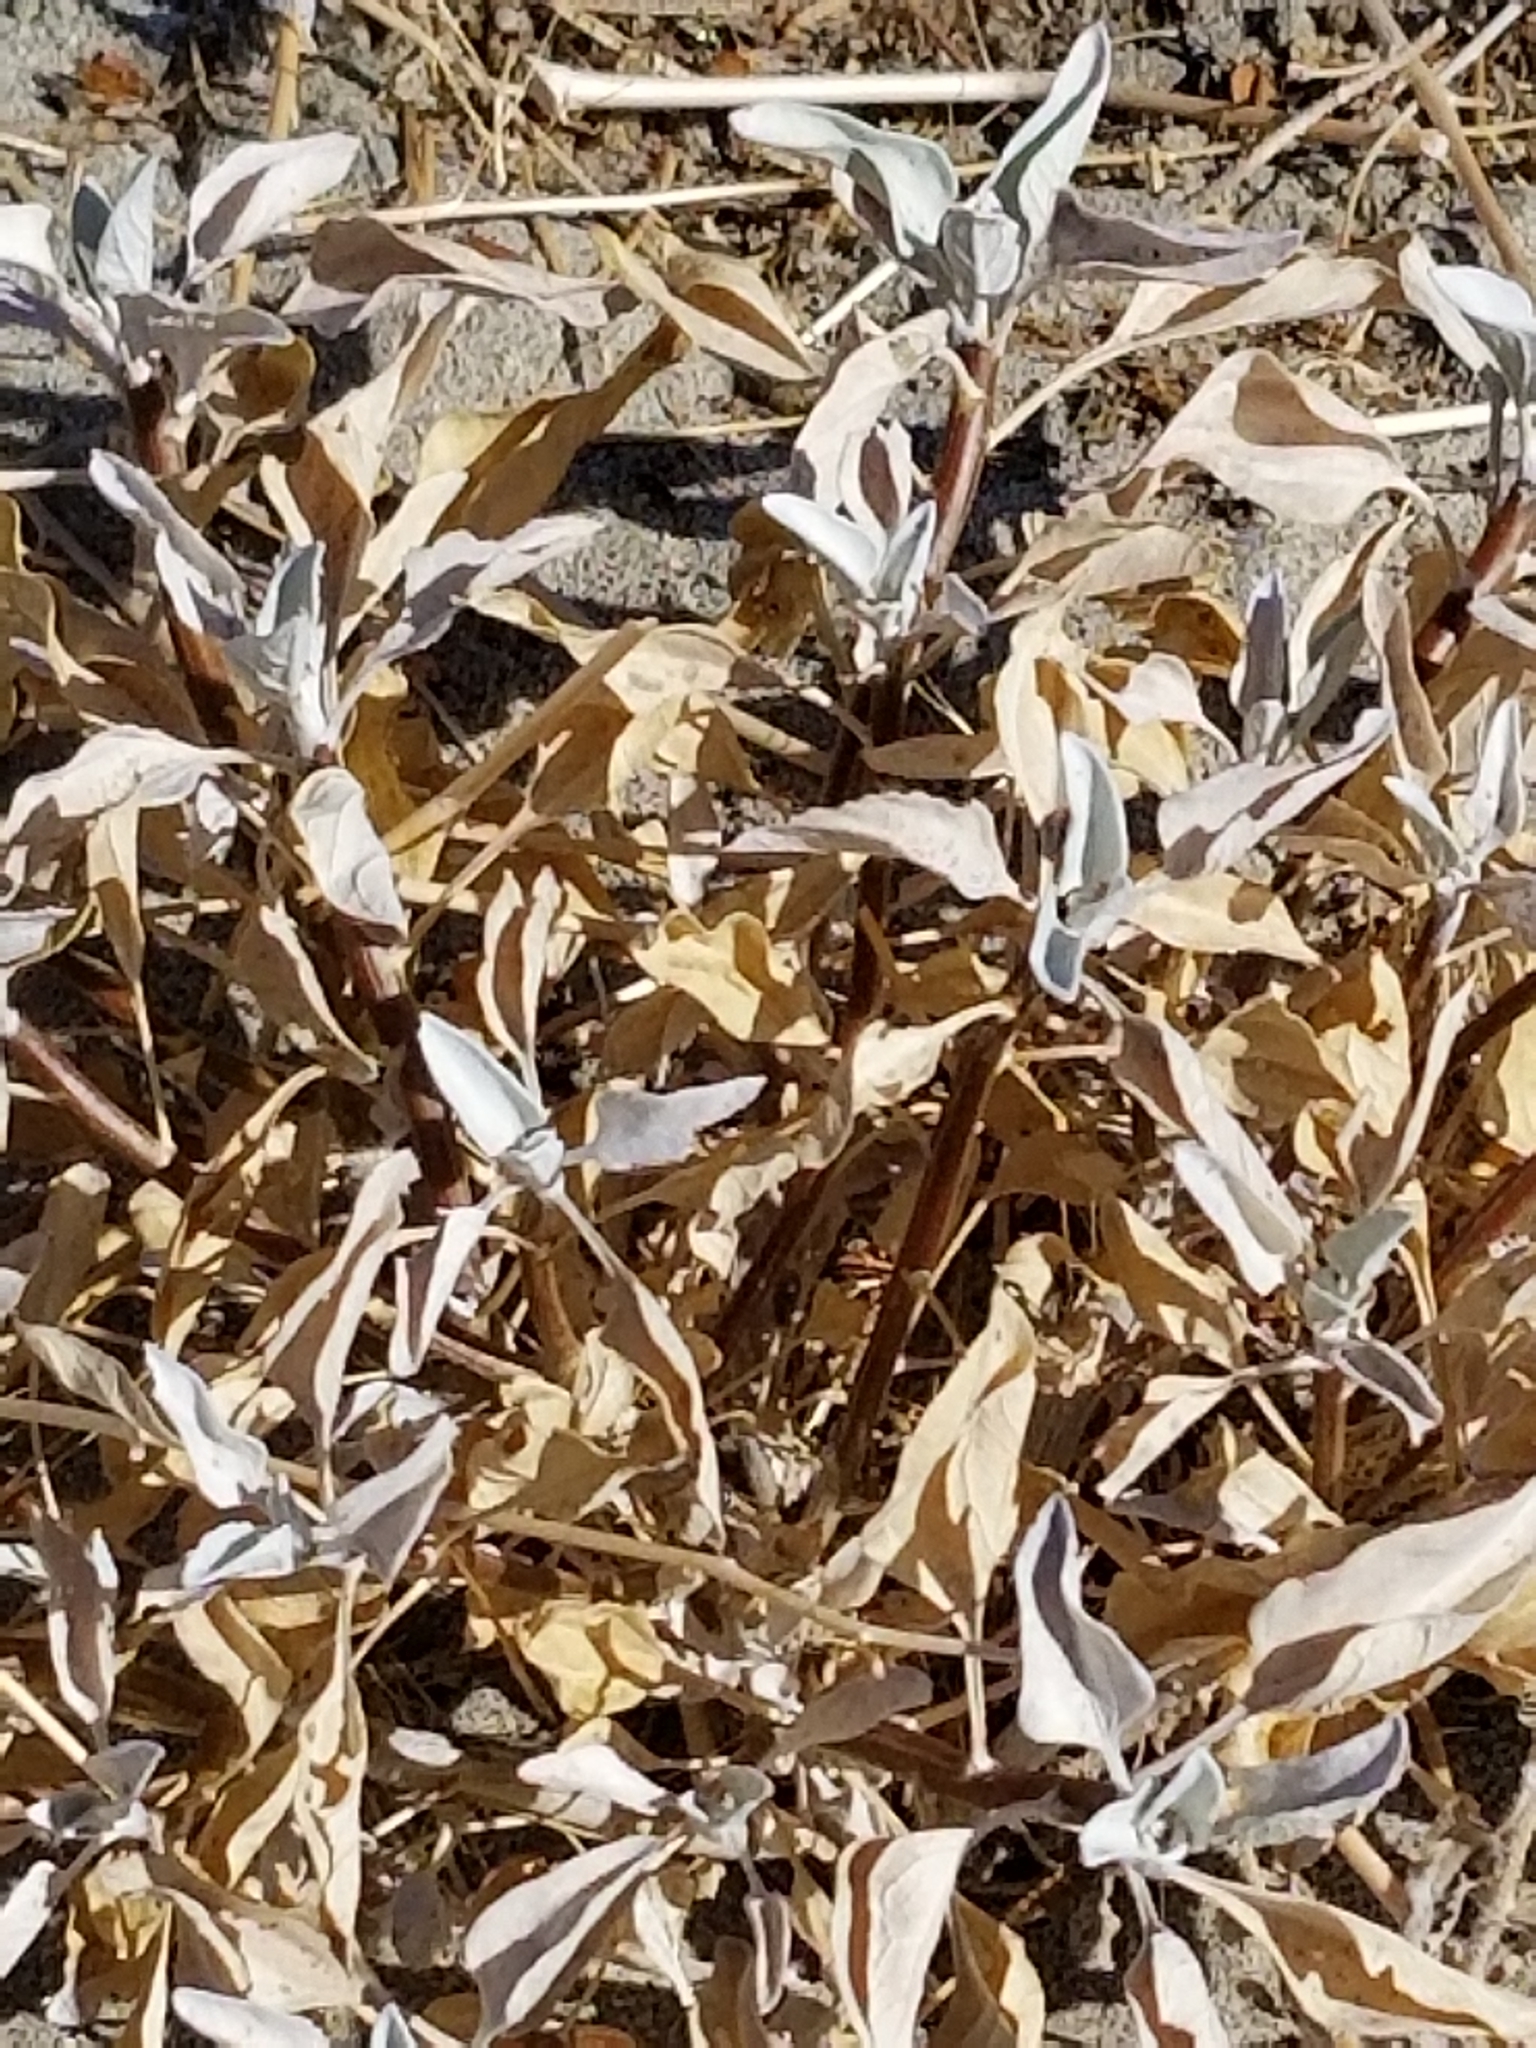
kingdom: Plantae
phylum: Tracheophyta
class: Magnoliopsida
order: Asterales
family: Asteraceae
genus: Encelia
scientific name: Encelia farinosa
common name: Brittlebush
